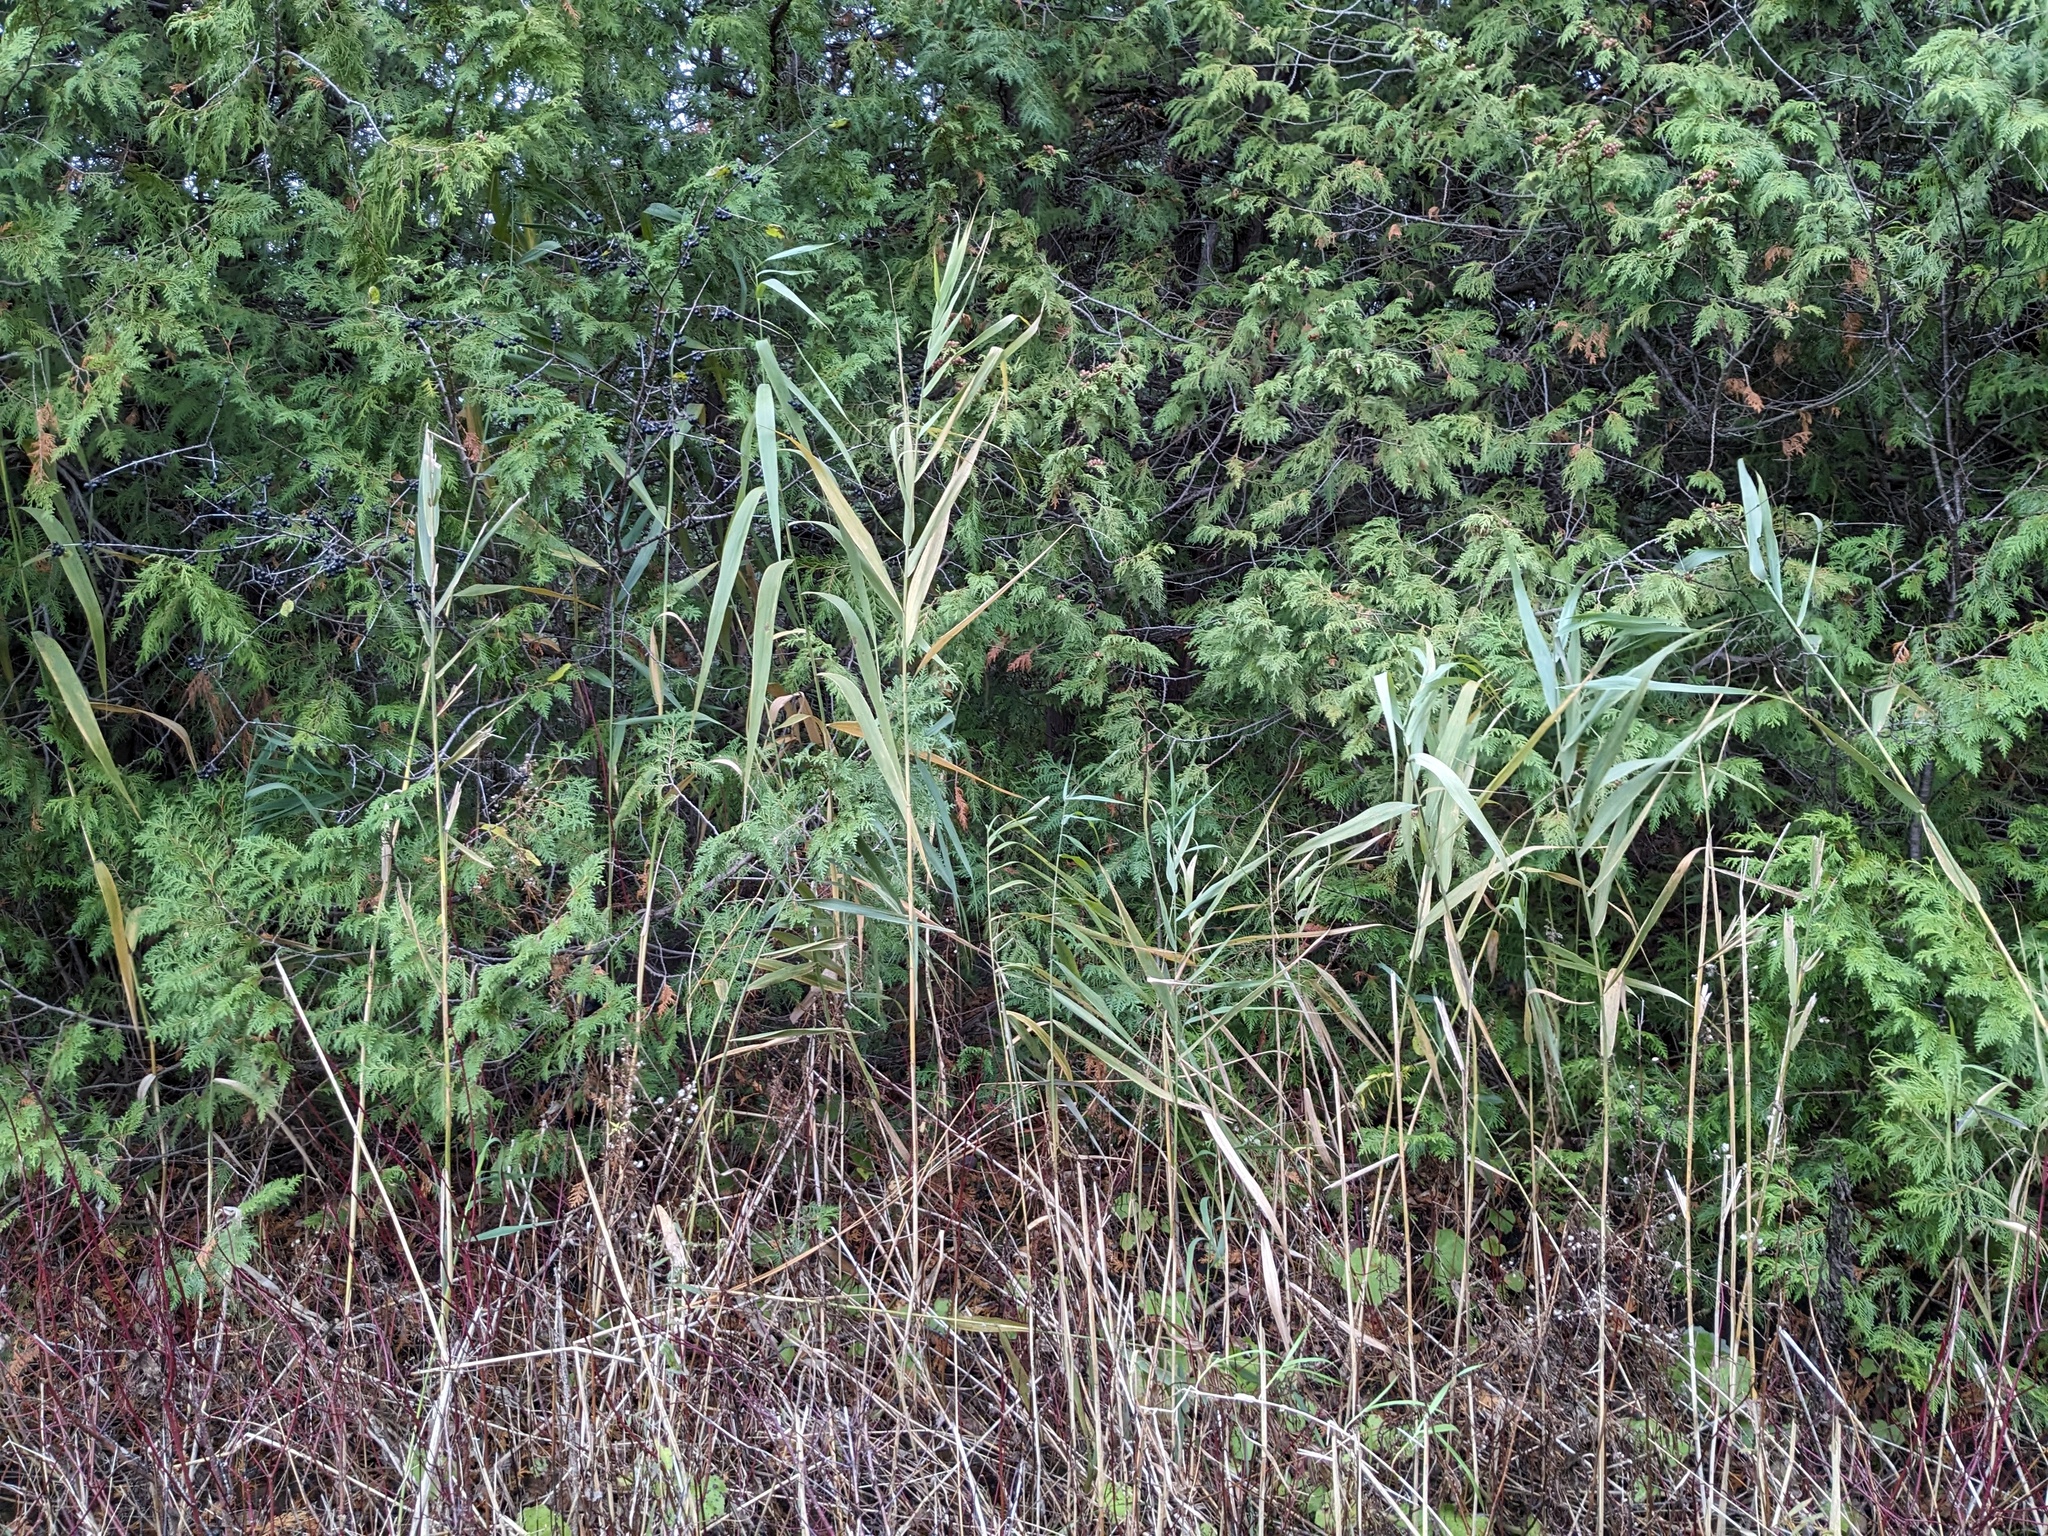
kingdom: Plantae
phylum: Tracheophyta
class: Liliopsida
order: Poales
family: Poaceae
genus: Phragmites
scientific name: Phragmites australis
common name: Common reed
